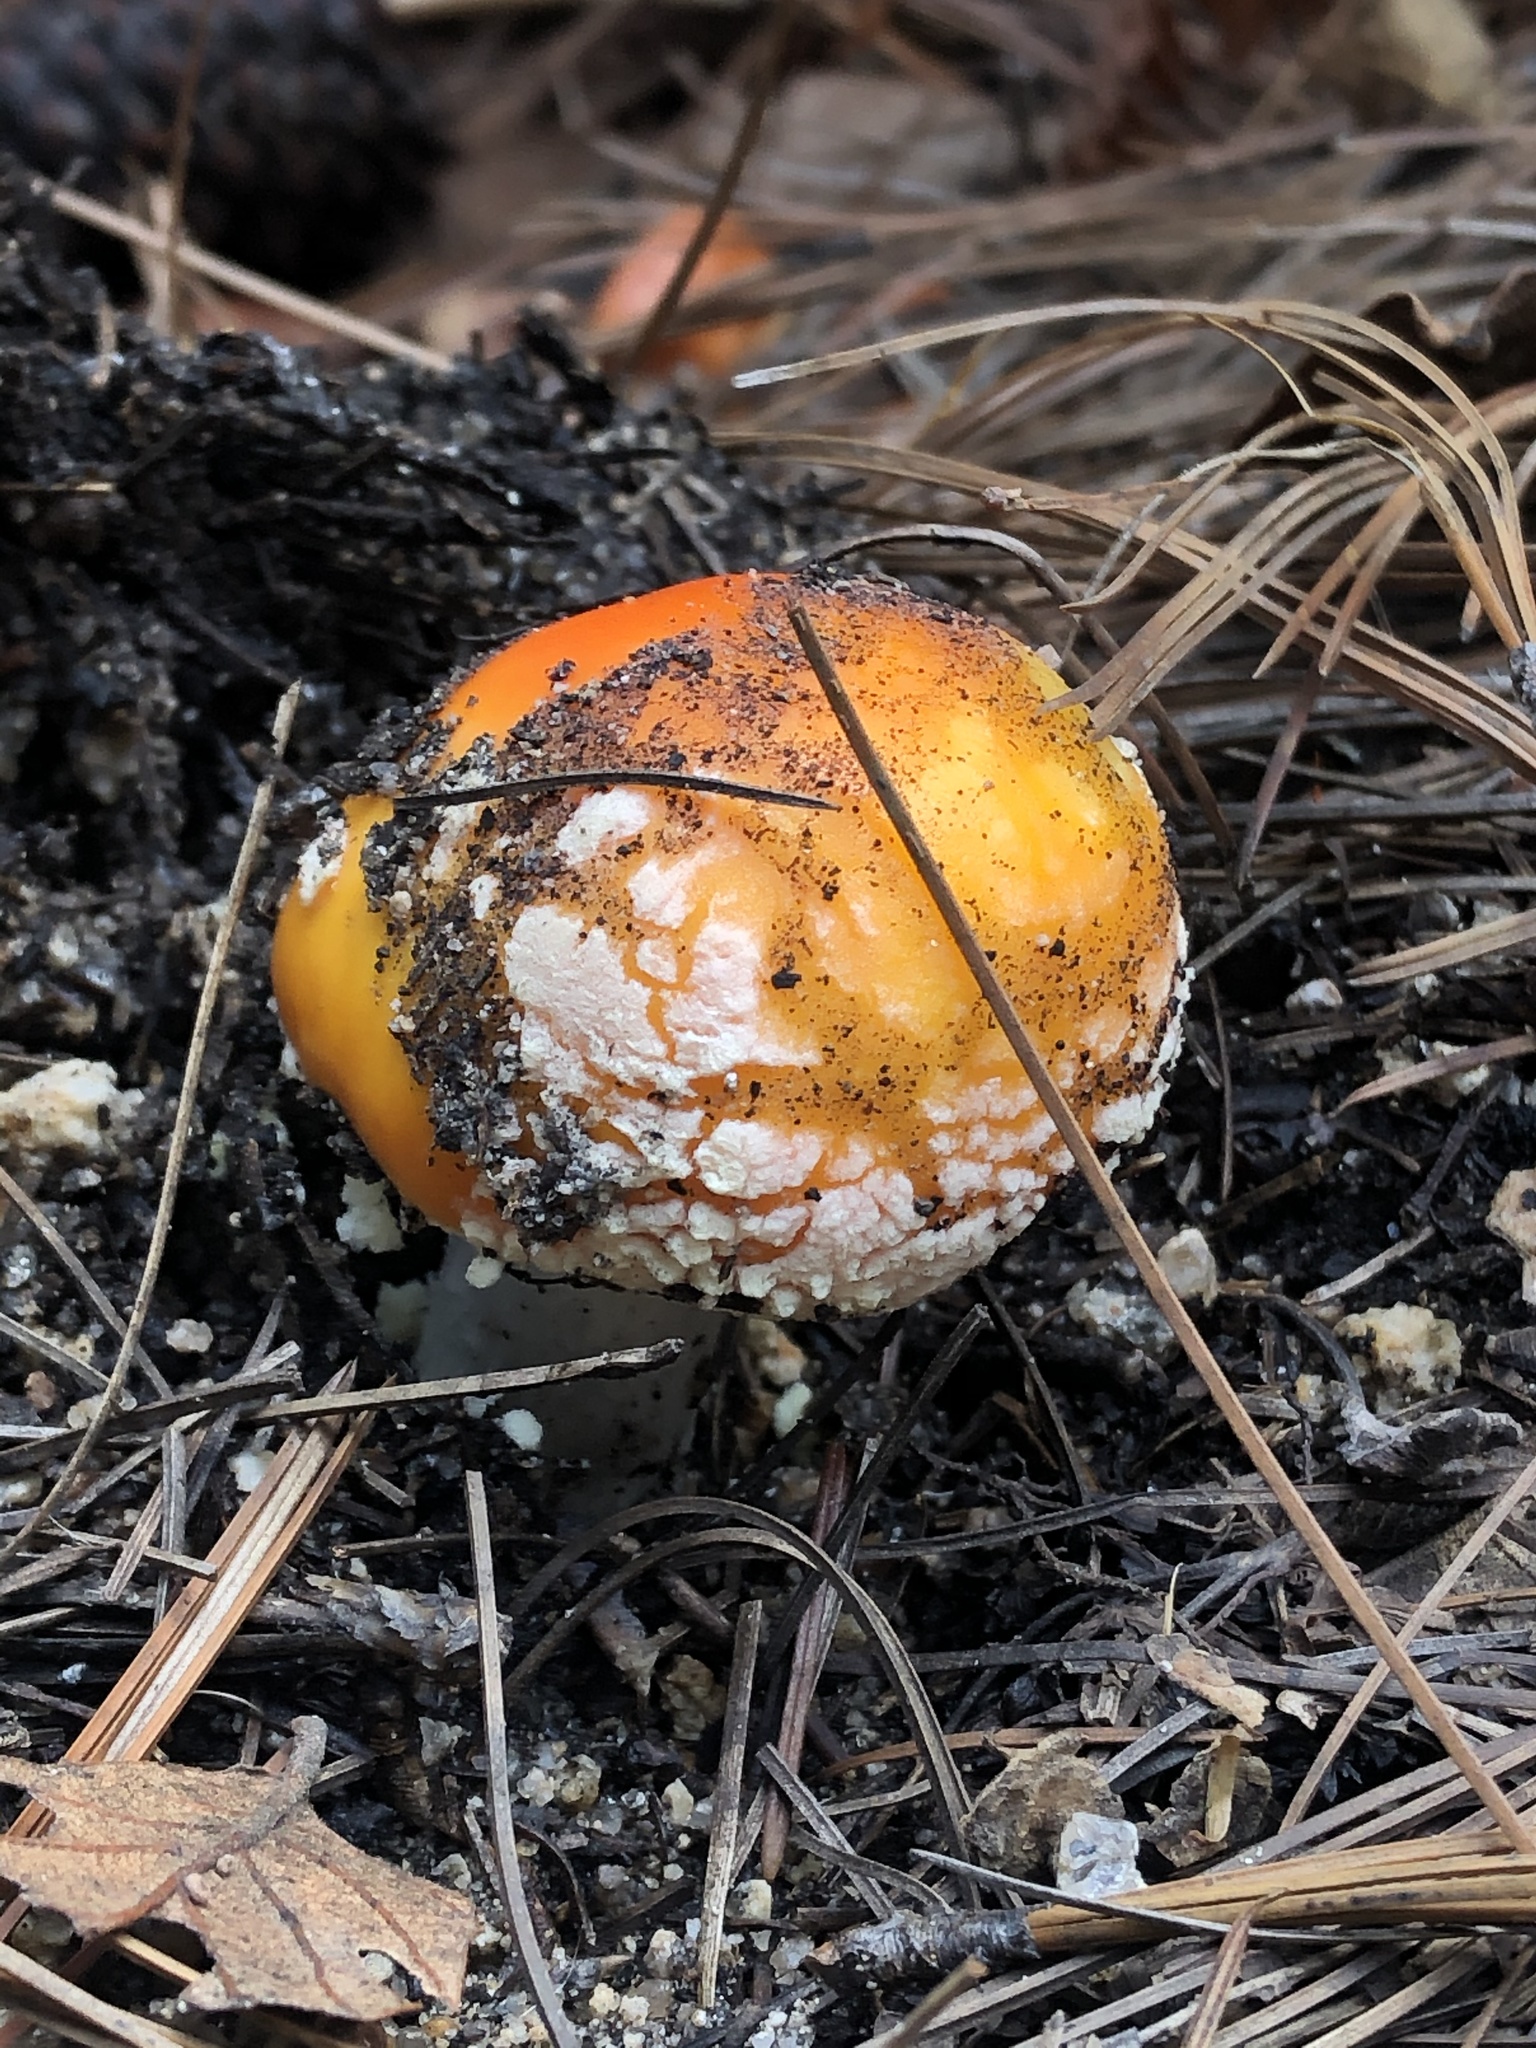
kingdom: Fungi
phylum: Basidiomycota
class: Agaricomycetes
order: Agaricales
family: Amanitaceae
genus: Amanita
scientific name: Amanita muscaria
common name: Fly agaric
